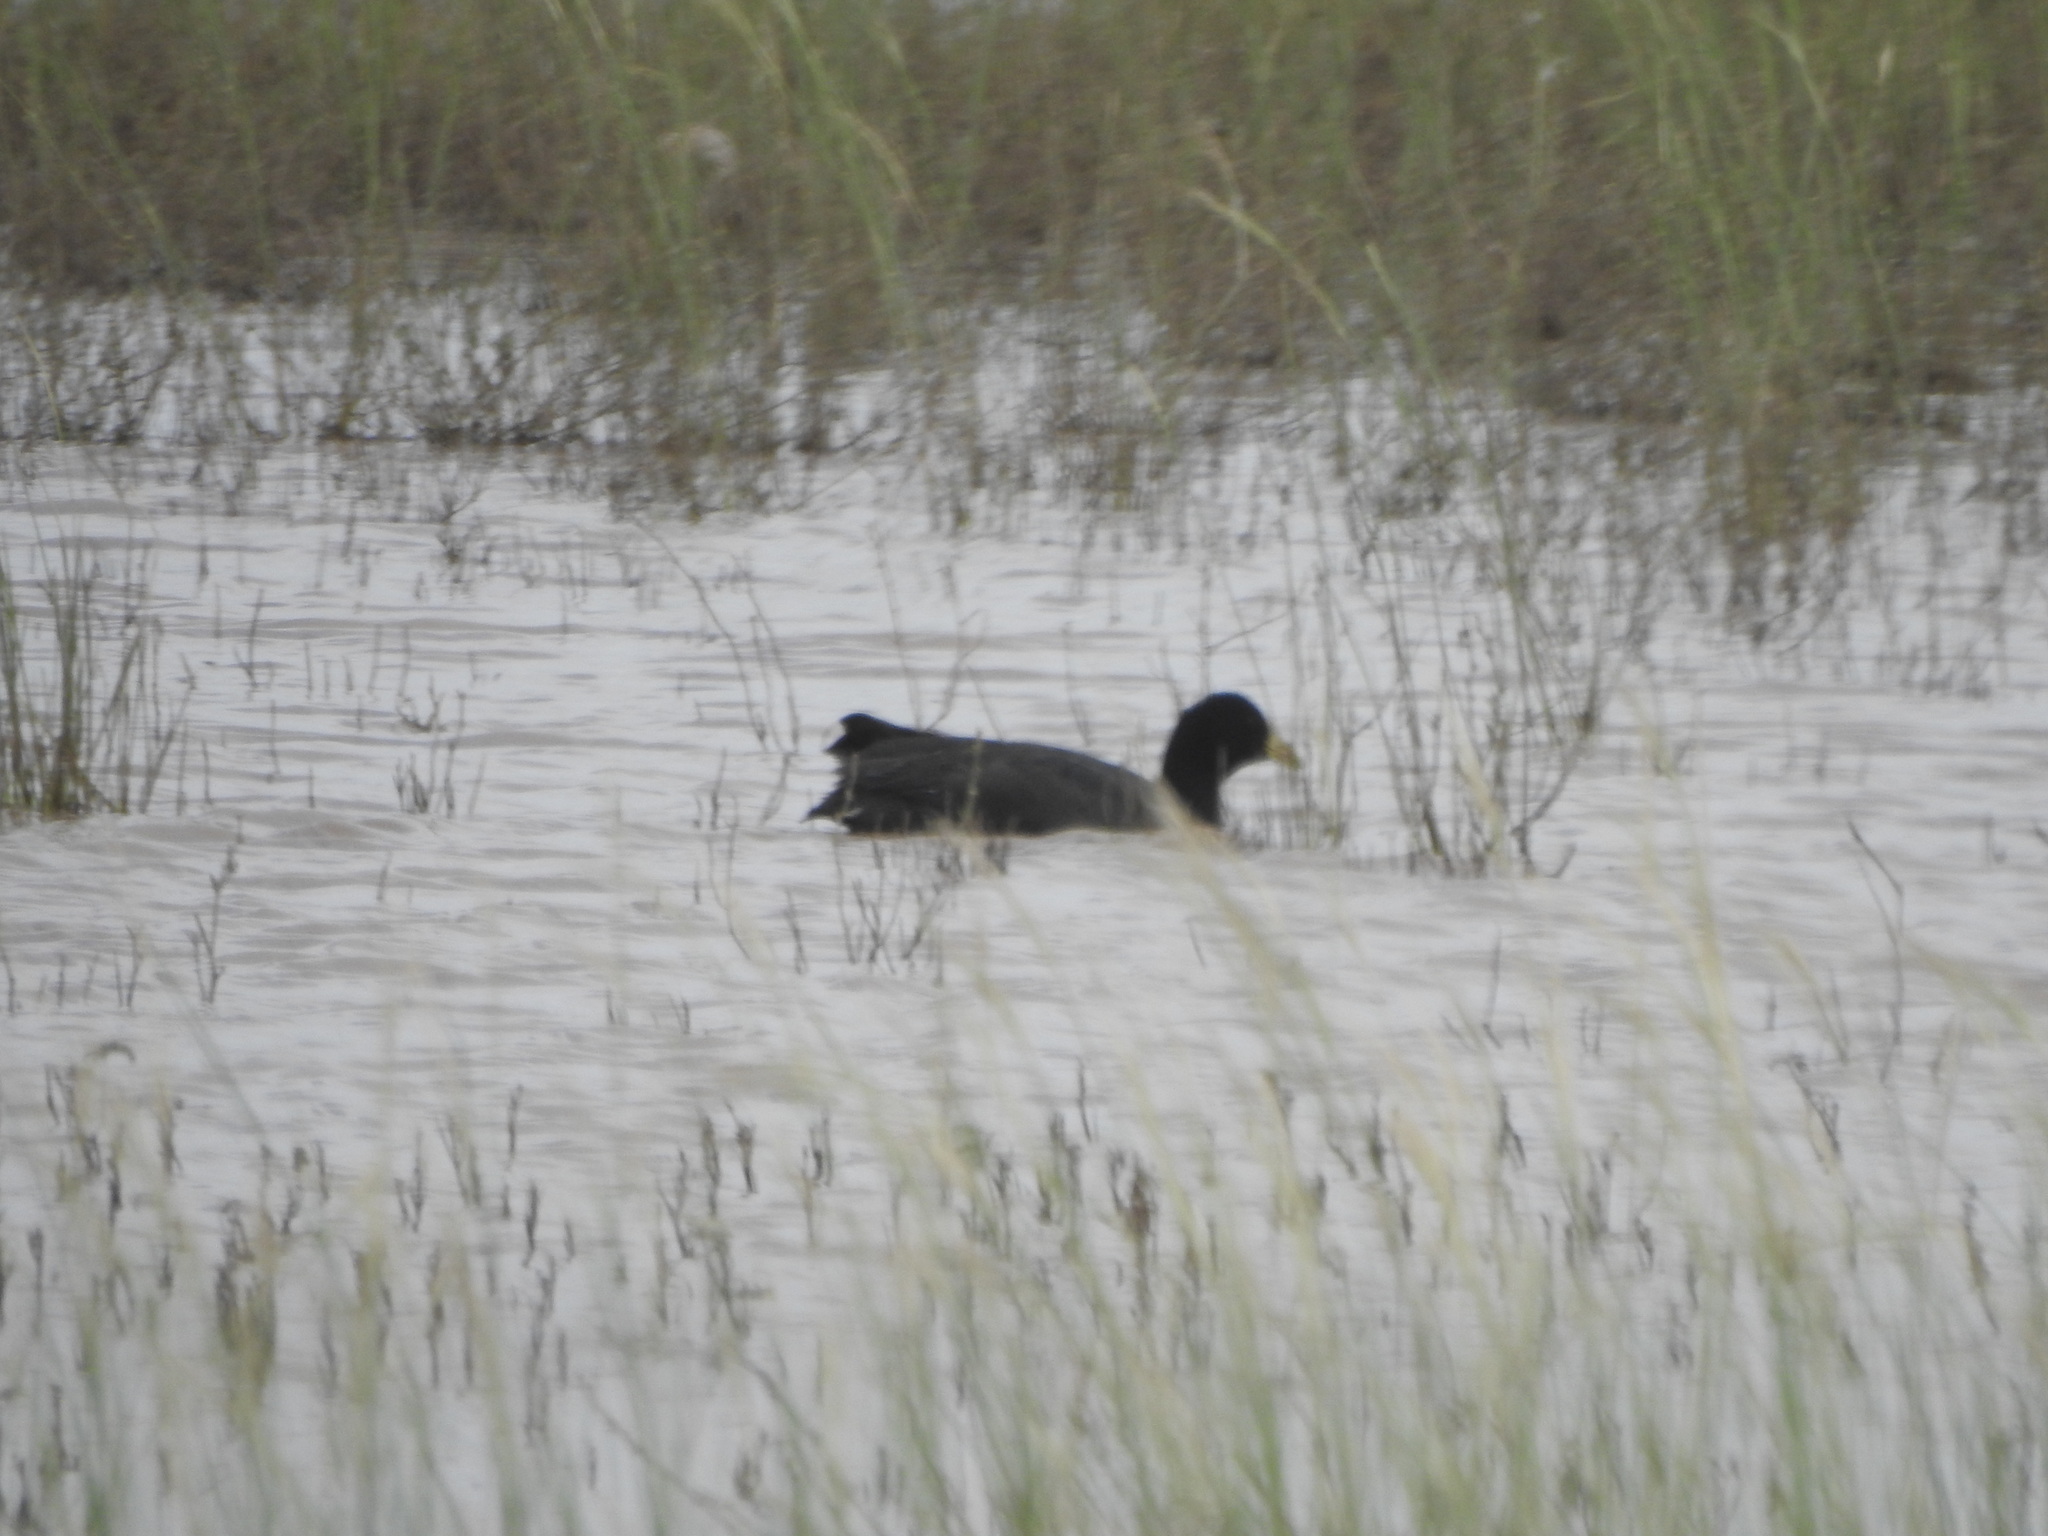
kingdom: Animalia
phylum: Chordata
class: Aves
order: Gruiformes
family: Rallidae
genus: Fulica
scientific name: Fulica leucoptera
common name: White-winged coot
